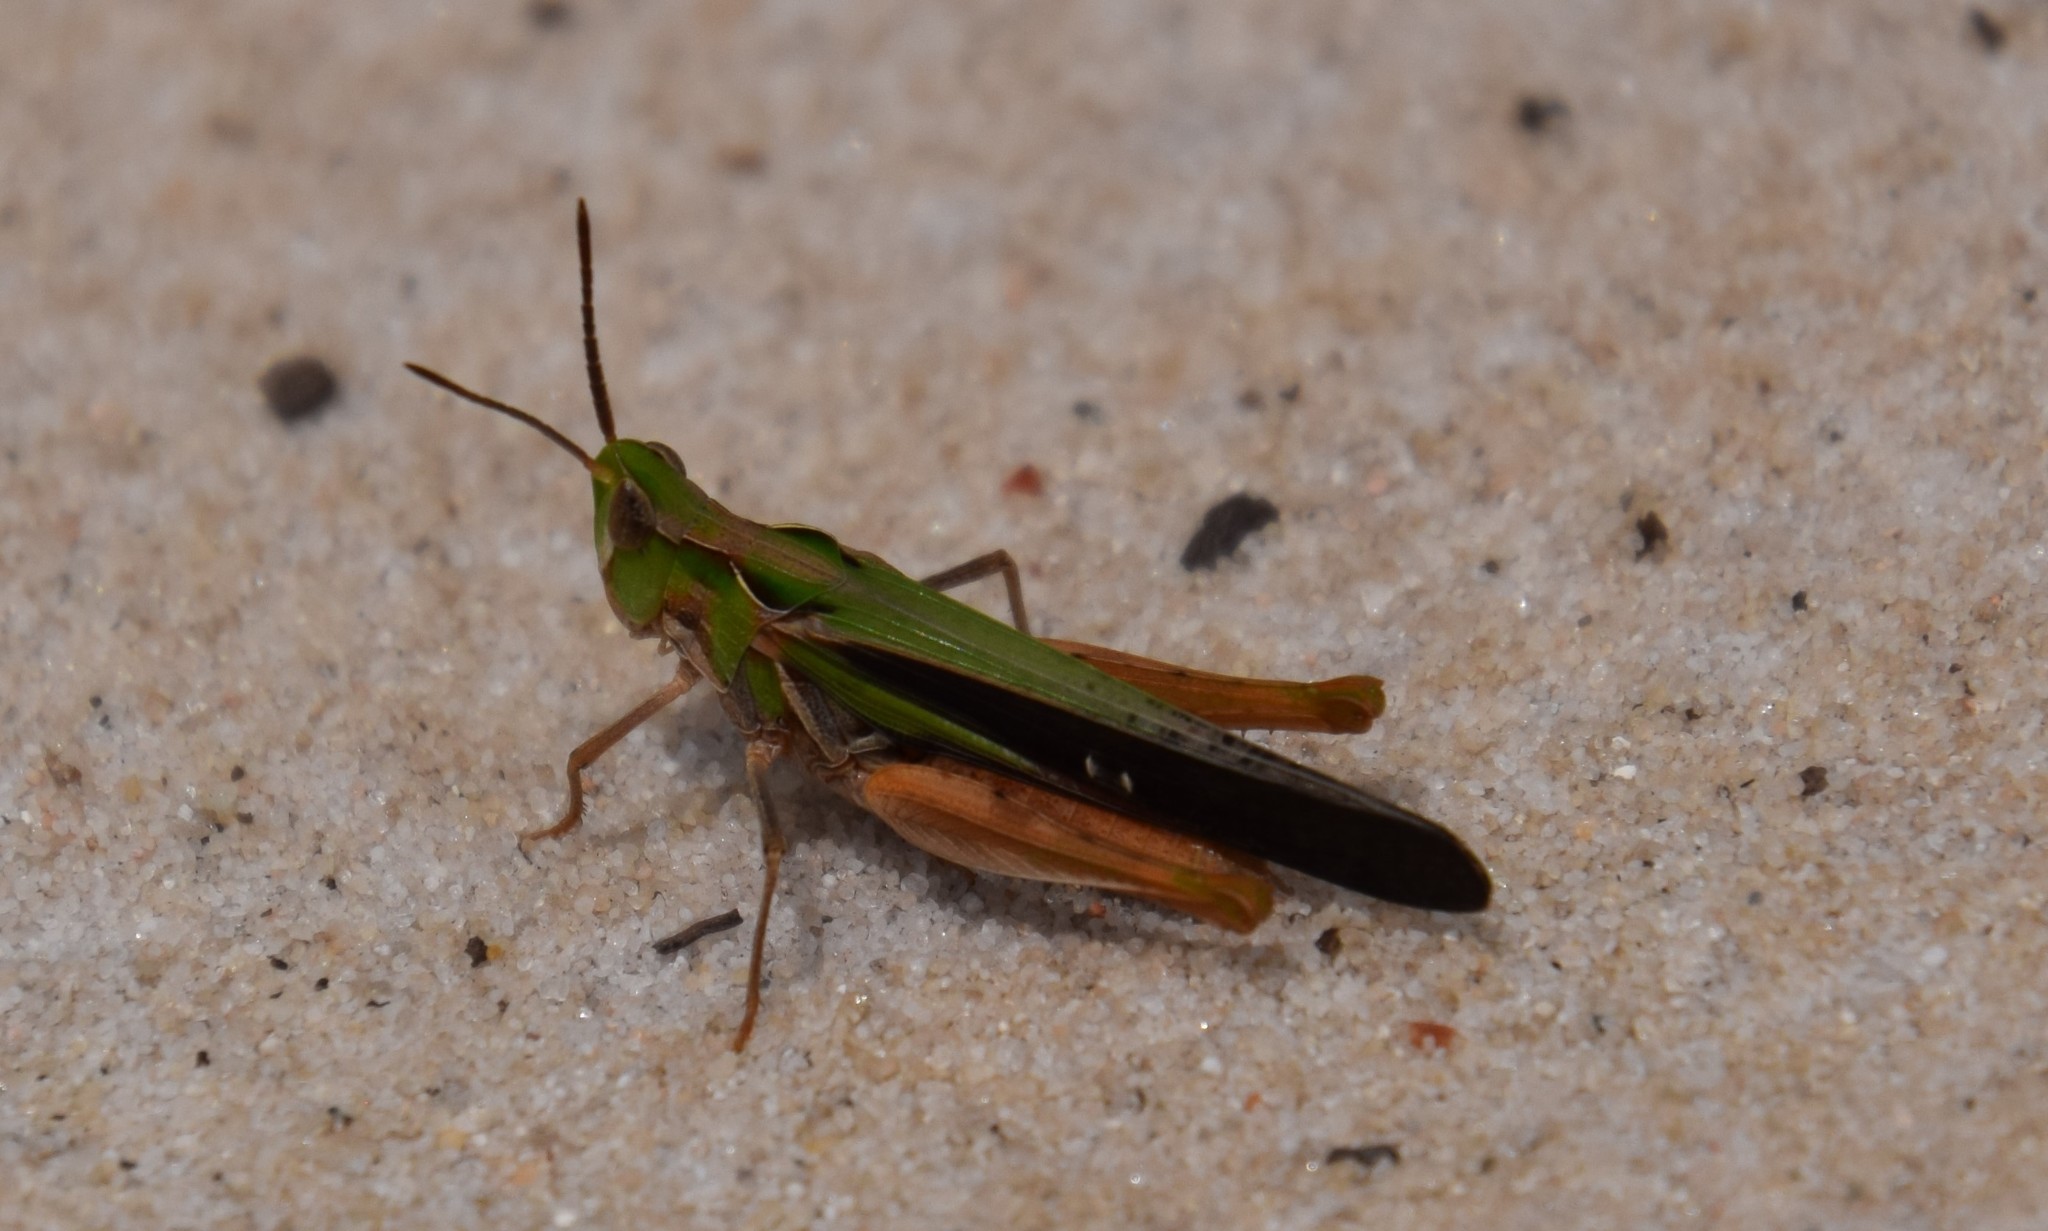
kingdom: Animalia
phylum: Arthropoda
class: Insecta
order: Orthoptera
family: Acrididae
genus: Froggattina
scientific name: Froggattina australis
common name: Froggatt's buzzer
